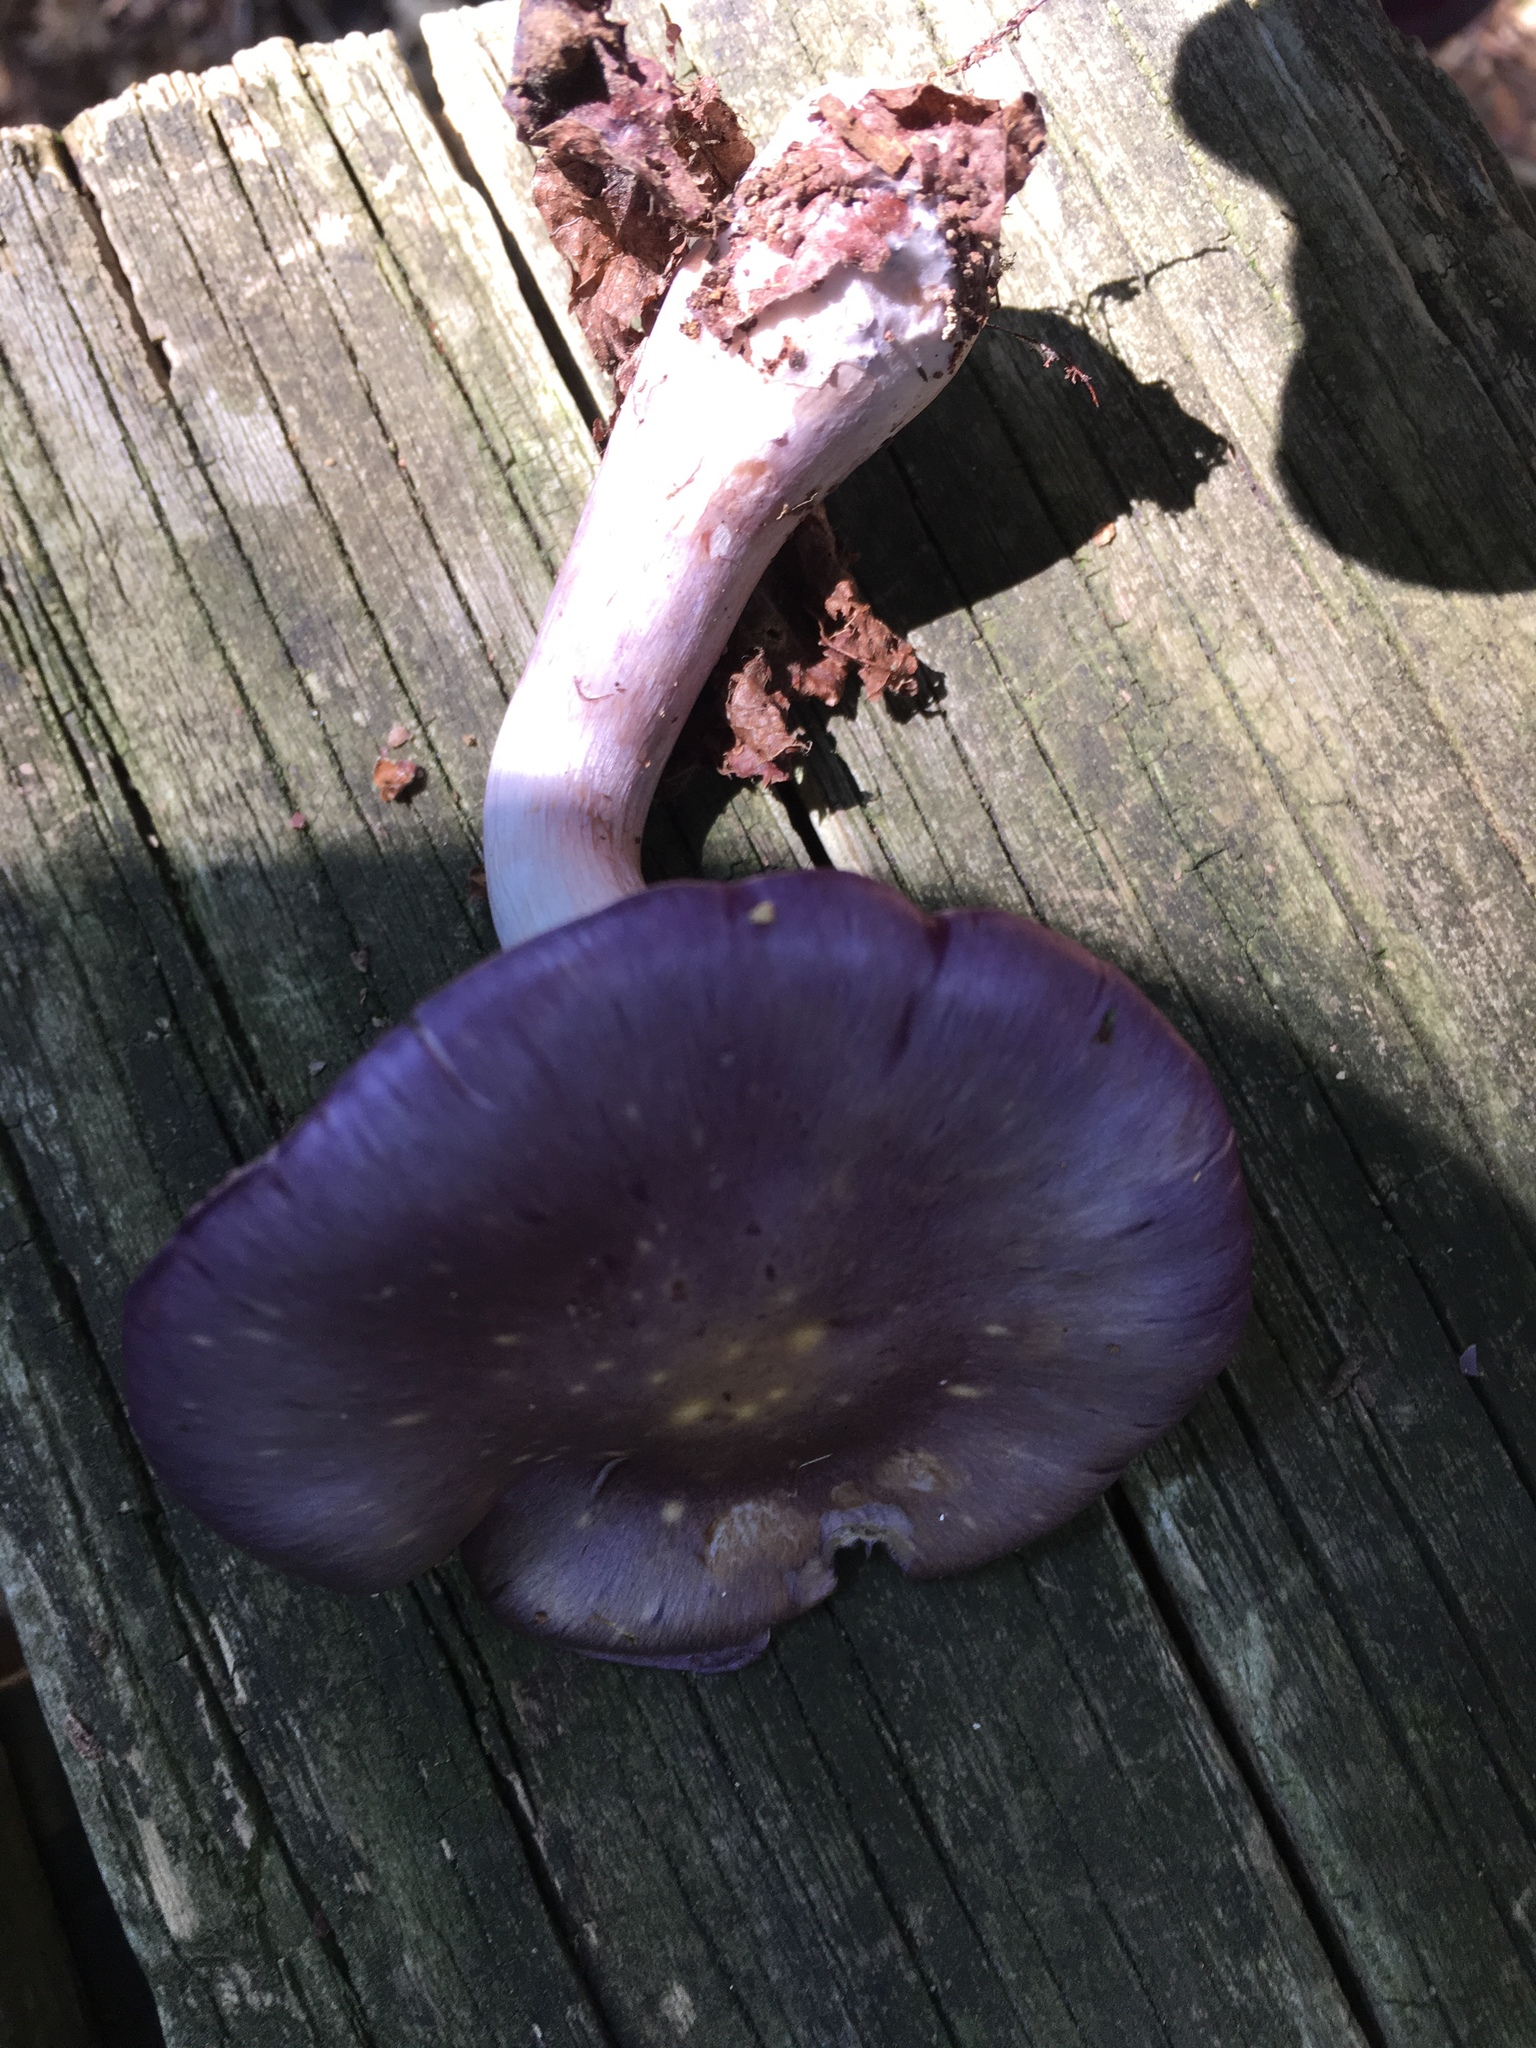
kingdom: Fungi
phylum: Basidiomycota
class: Agaricomycetes
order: Agaricales
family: Cortinariaceae
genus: Cortinarius
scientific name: Cortinarius iodes
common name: Viscid violet cort
